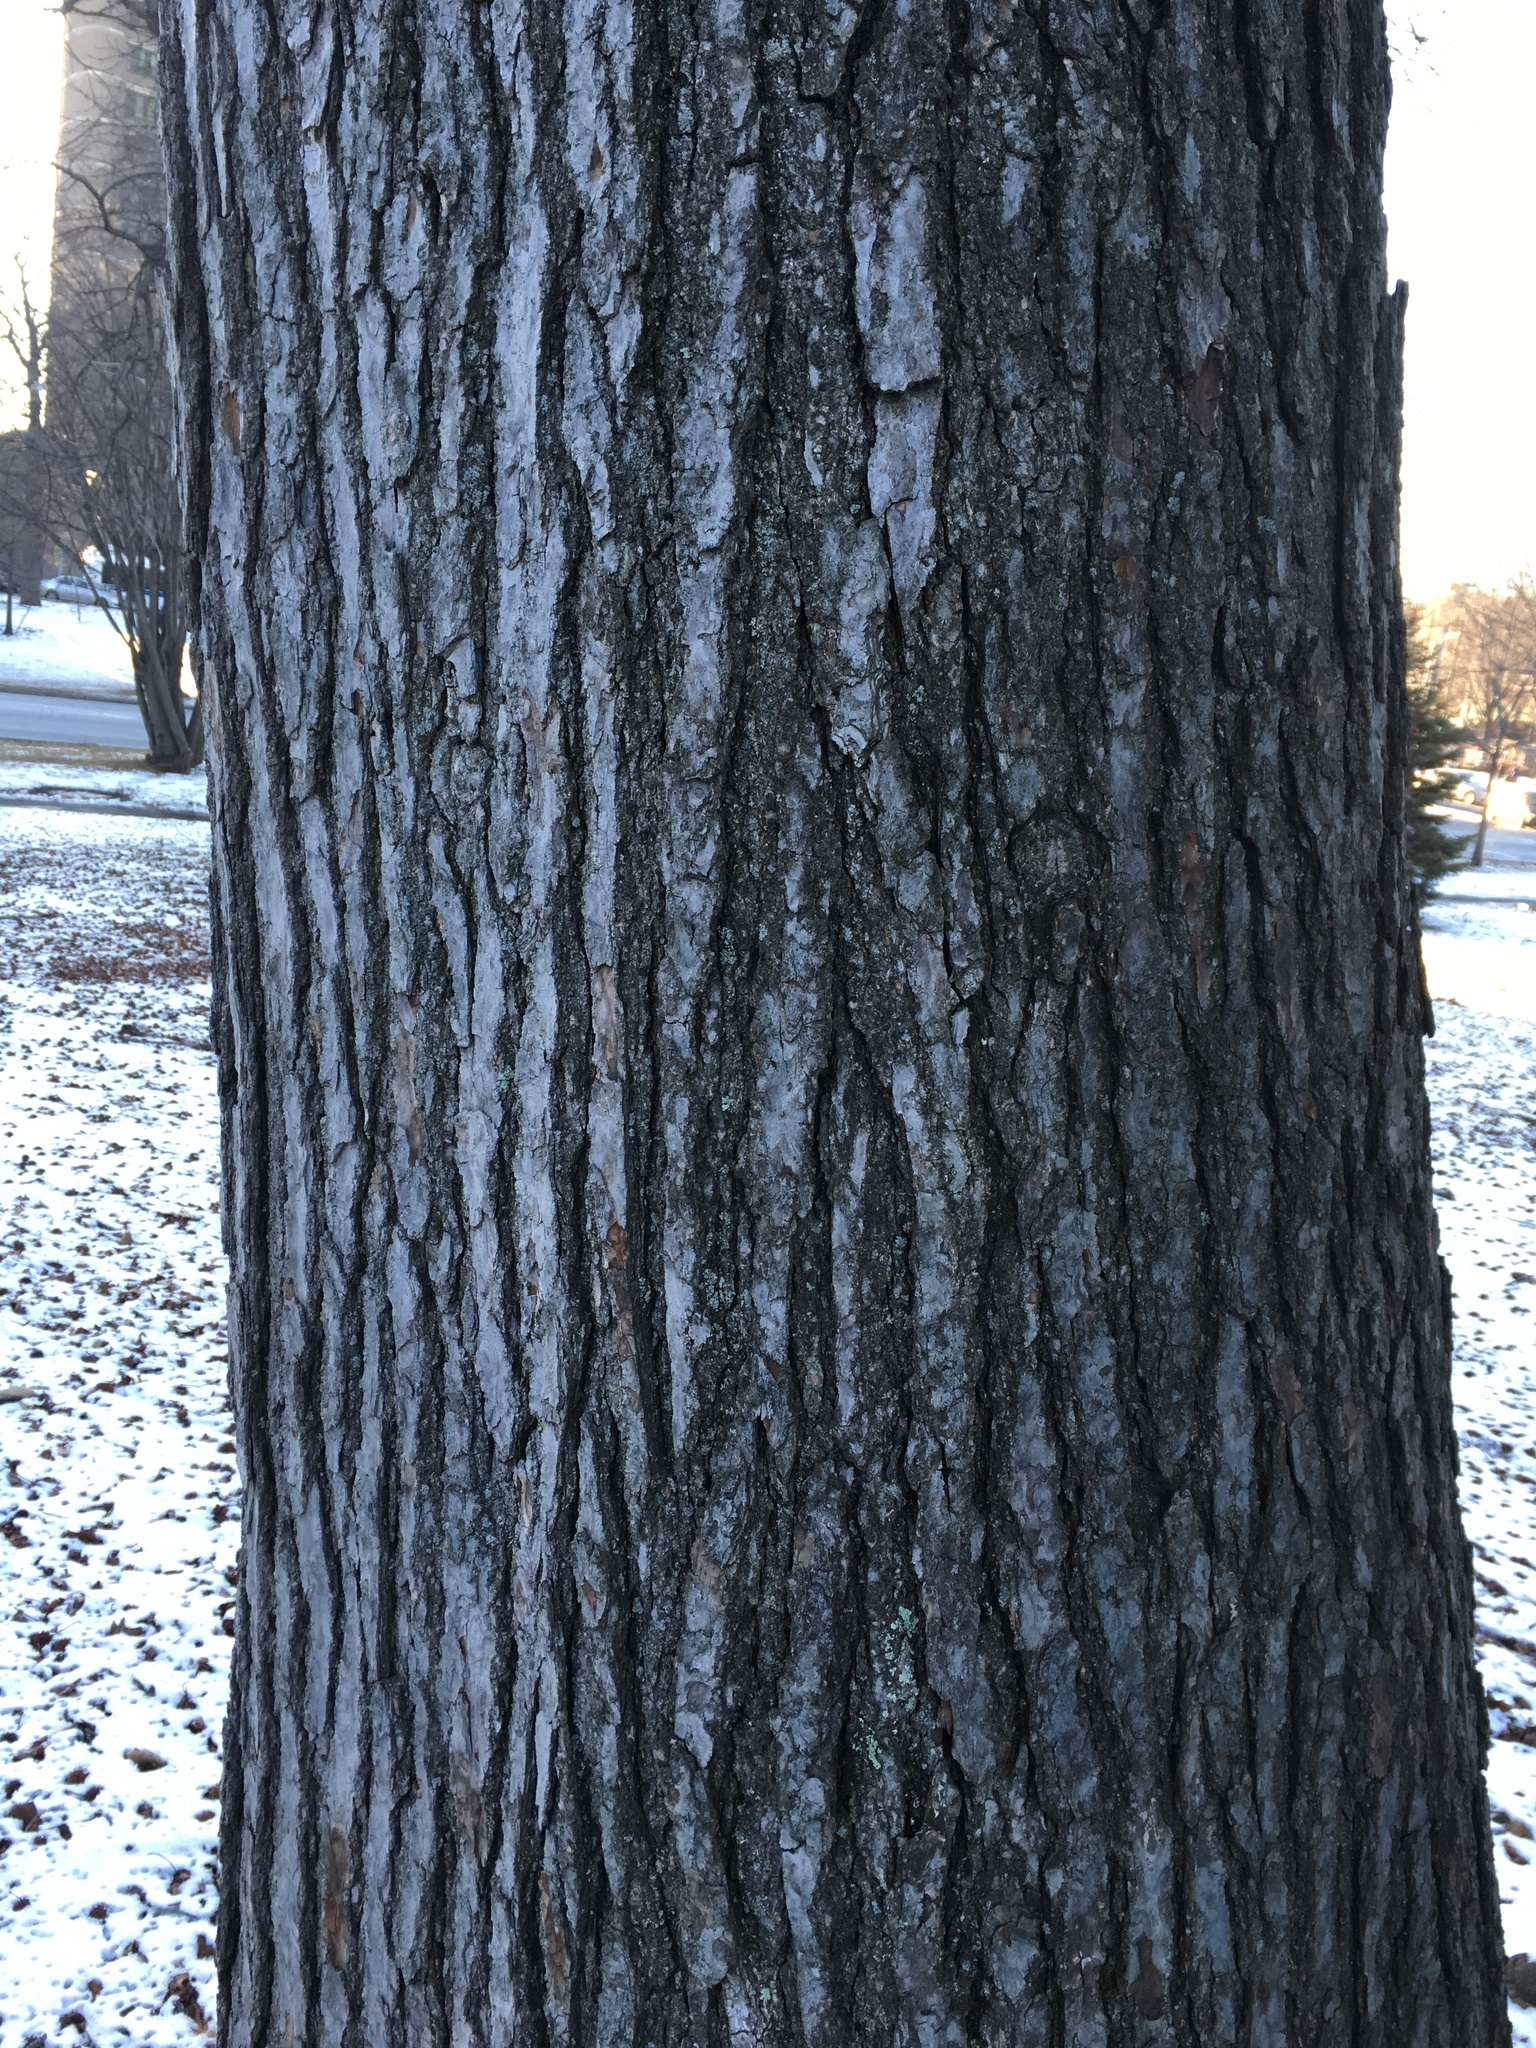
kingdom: Plantae
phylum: Tracheophyta
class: Magnoliopsida
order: Saxifragales
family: Altingiaceae
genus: Liquidambar
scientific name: Liquidambar styraciflua
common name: Sweet gum
